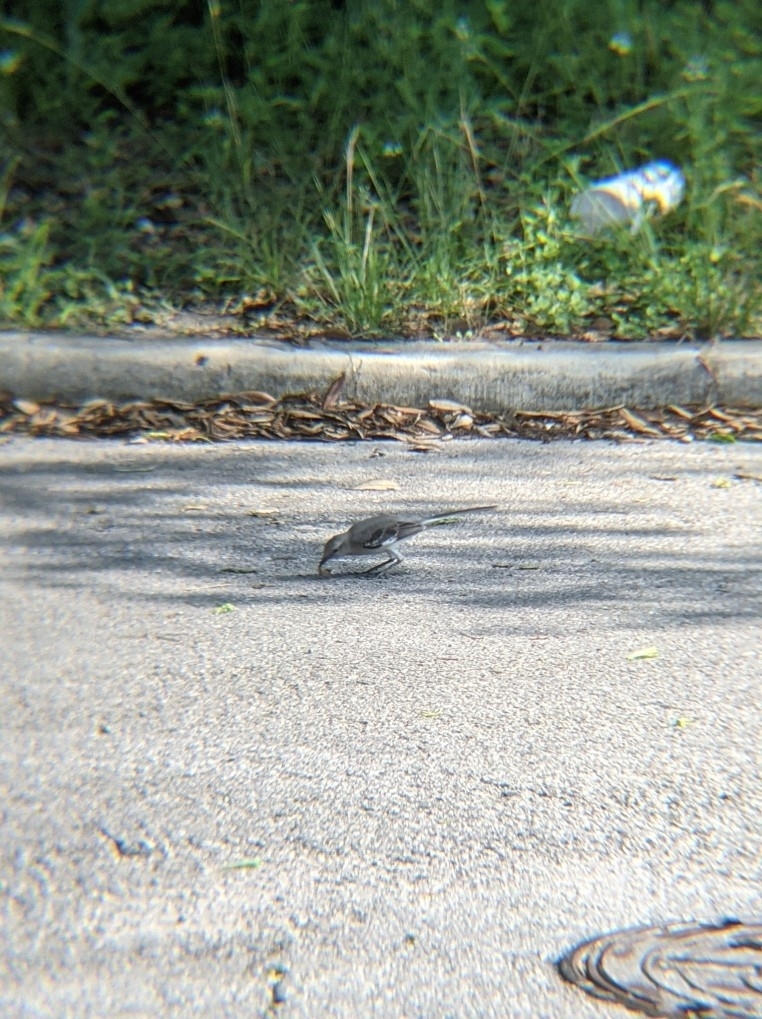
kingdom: Animalia
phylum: Chordata
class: Aves
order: Passeriformes
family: Mimidae
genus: Mimus
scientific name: Mimus polyglottos
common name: Northern mockingbird
